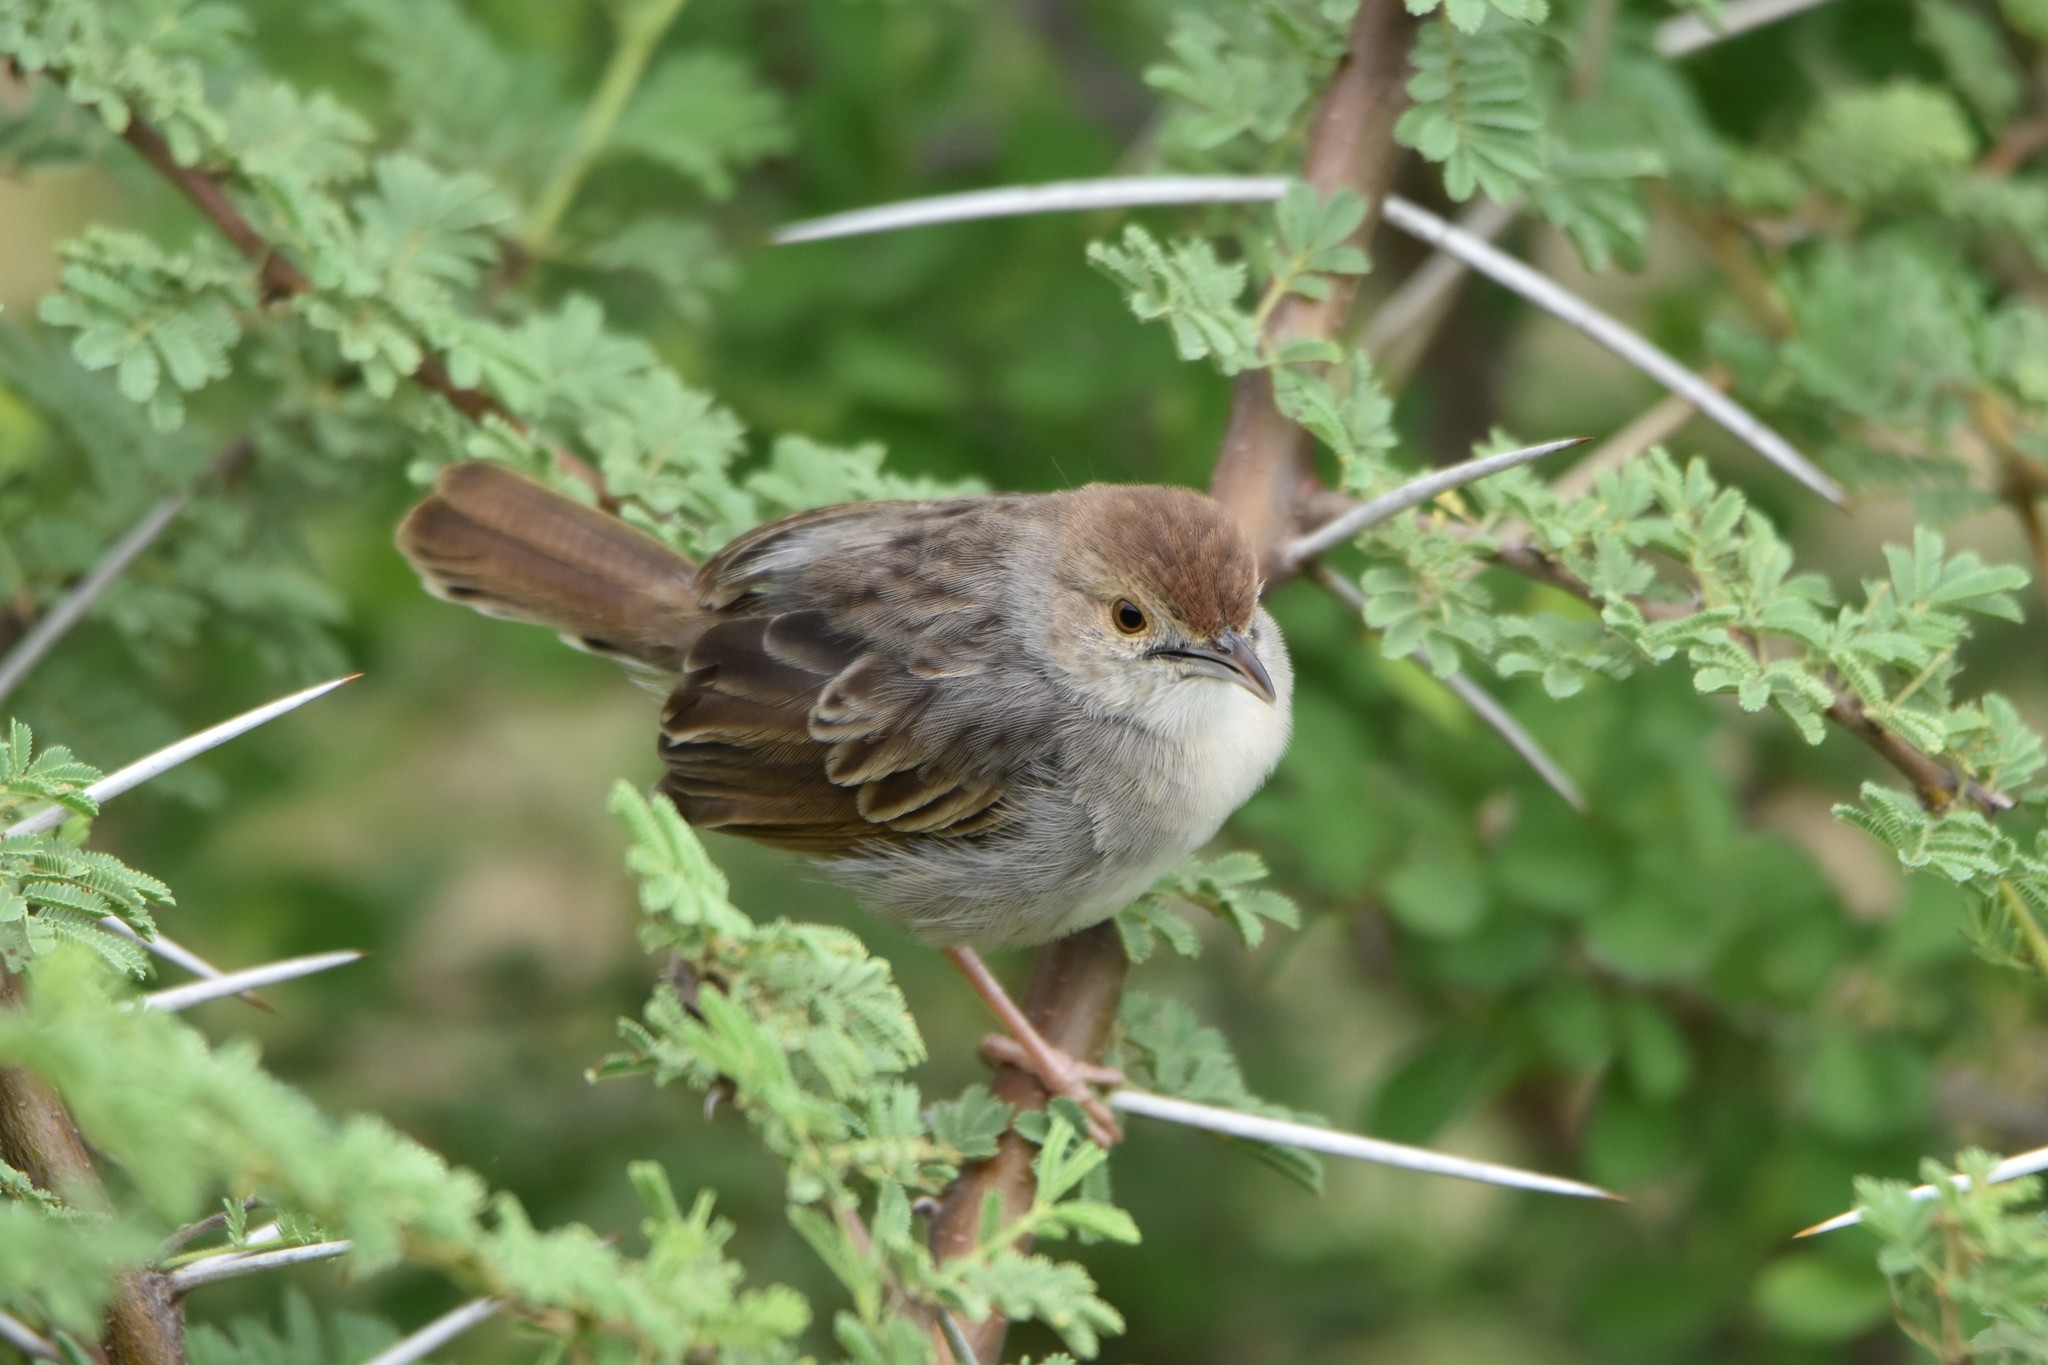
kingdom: Animalia
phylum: Chordata
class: Aves
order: Passeriformes
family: Cisticolidae
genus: Cisticola
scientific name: Cisticola chiniana
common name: Rattling cisticola
